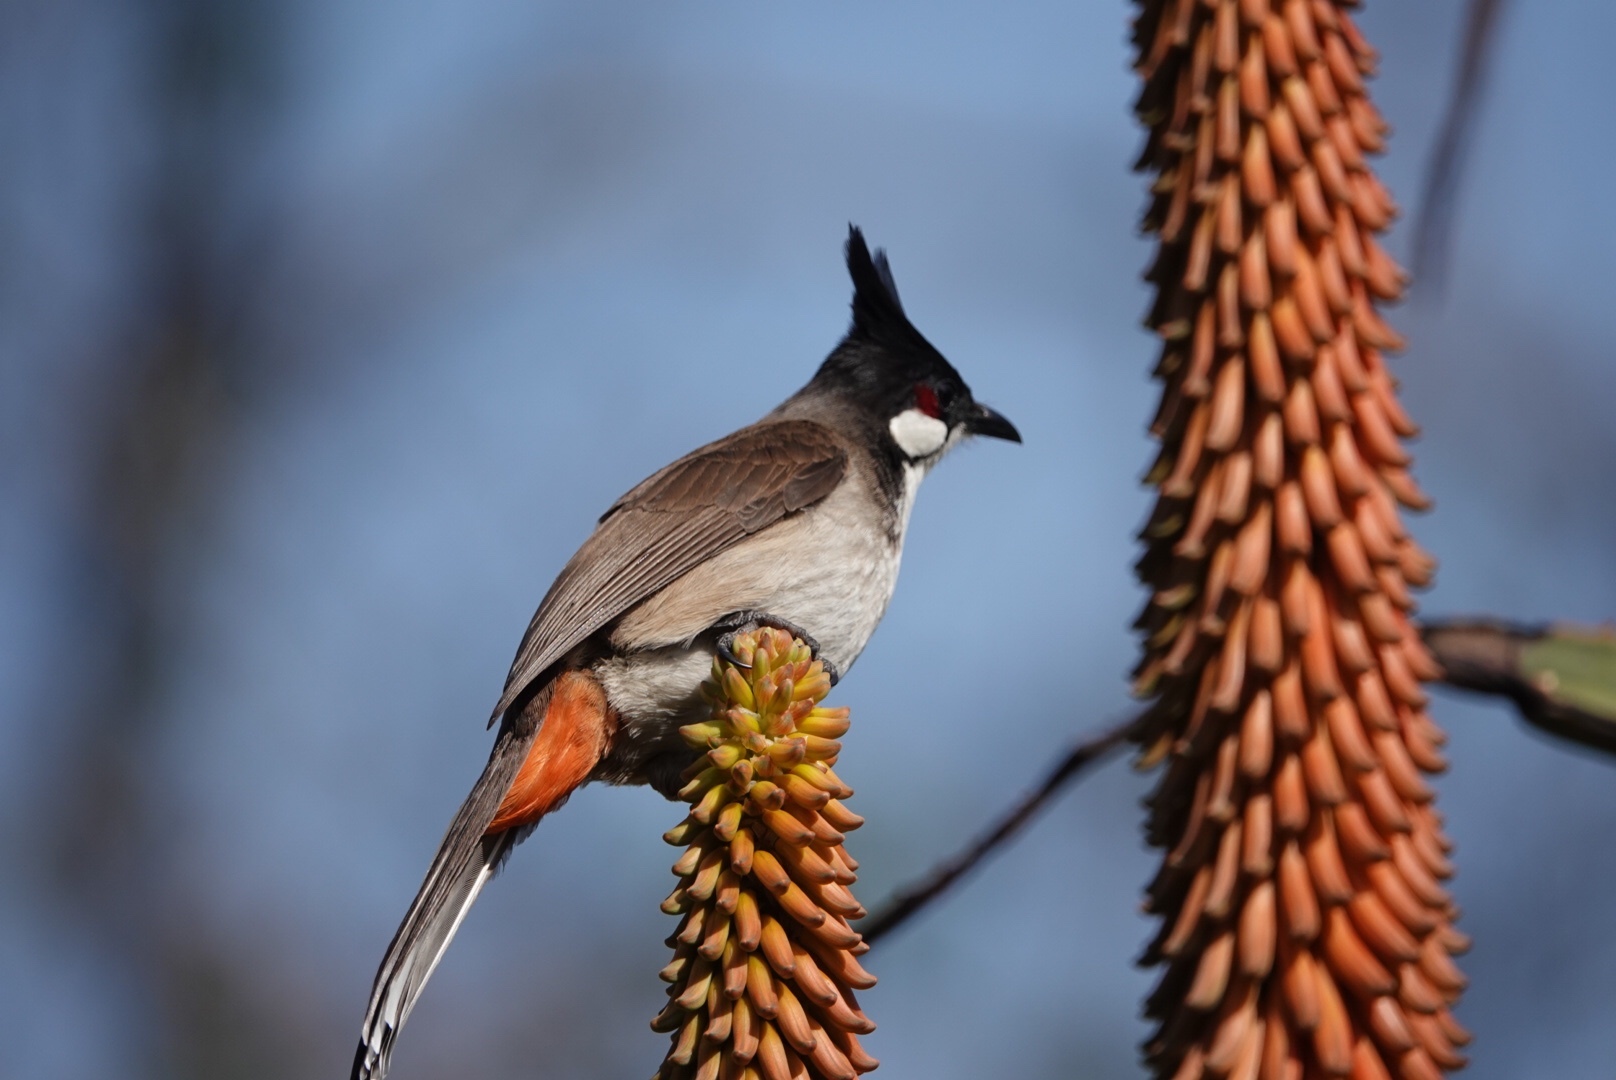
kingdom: Animalia
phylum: Chordata
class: Aves
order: Passeriformes
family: Pycnonotidae
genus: Pycnonotus
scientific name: Pycnonotus jocosus
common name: Red-whiskered bulbul
